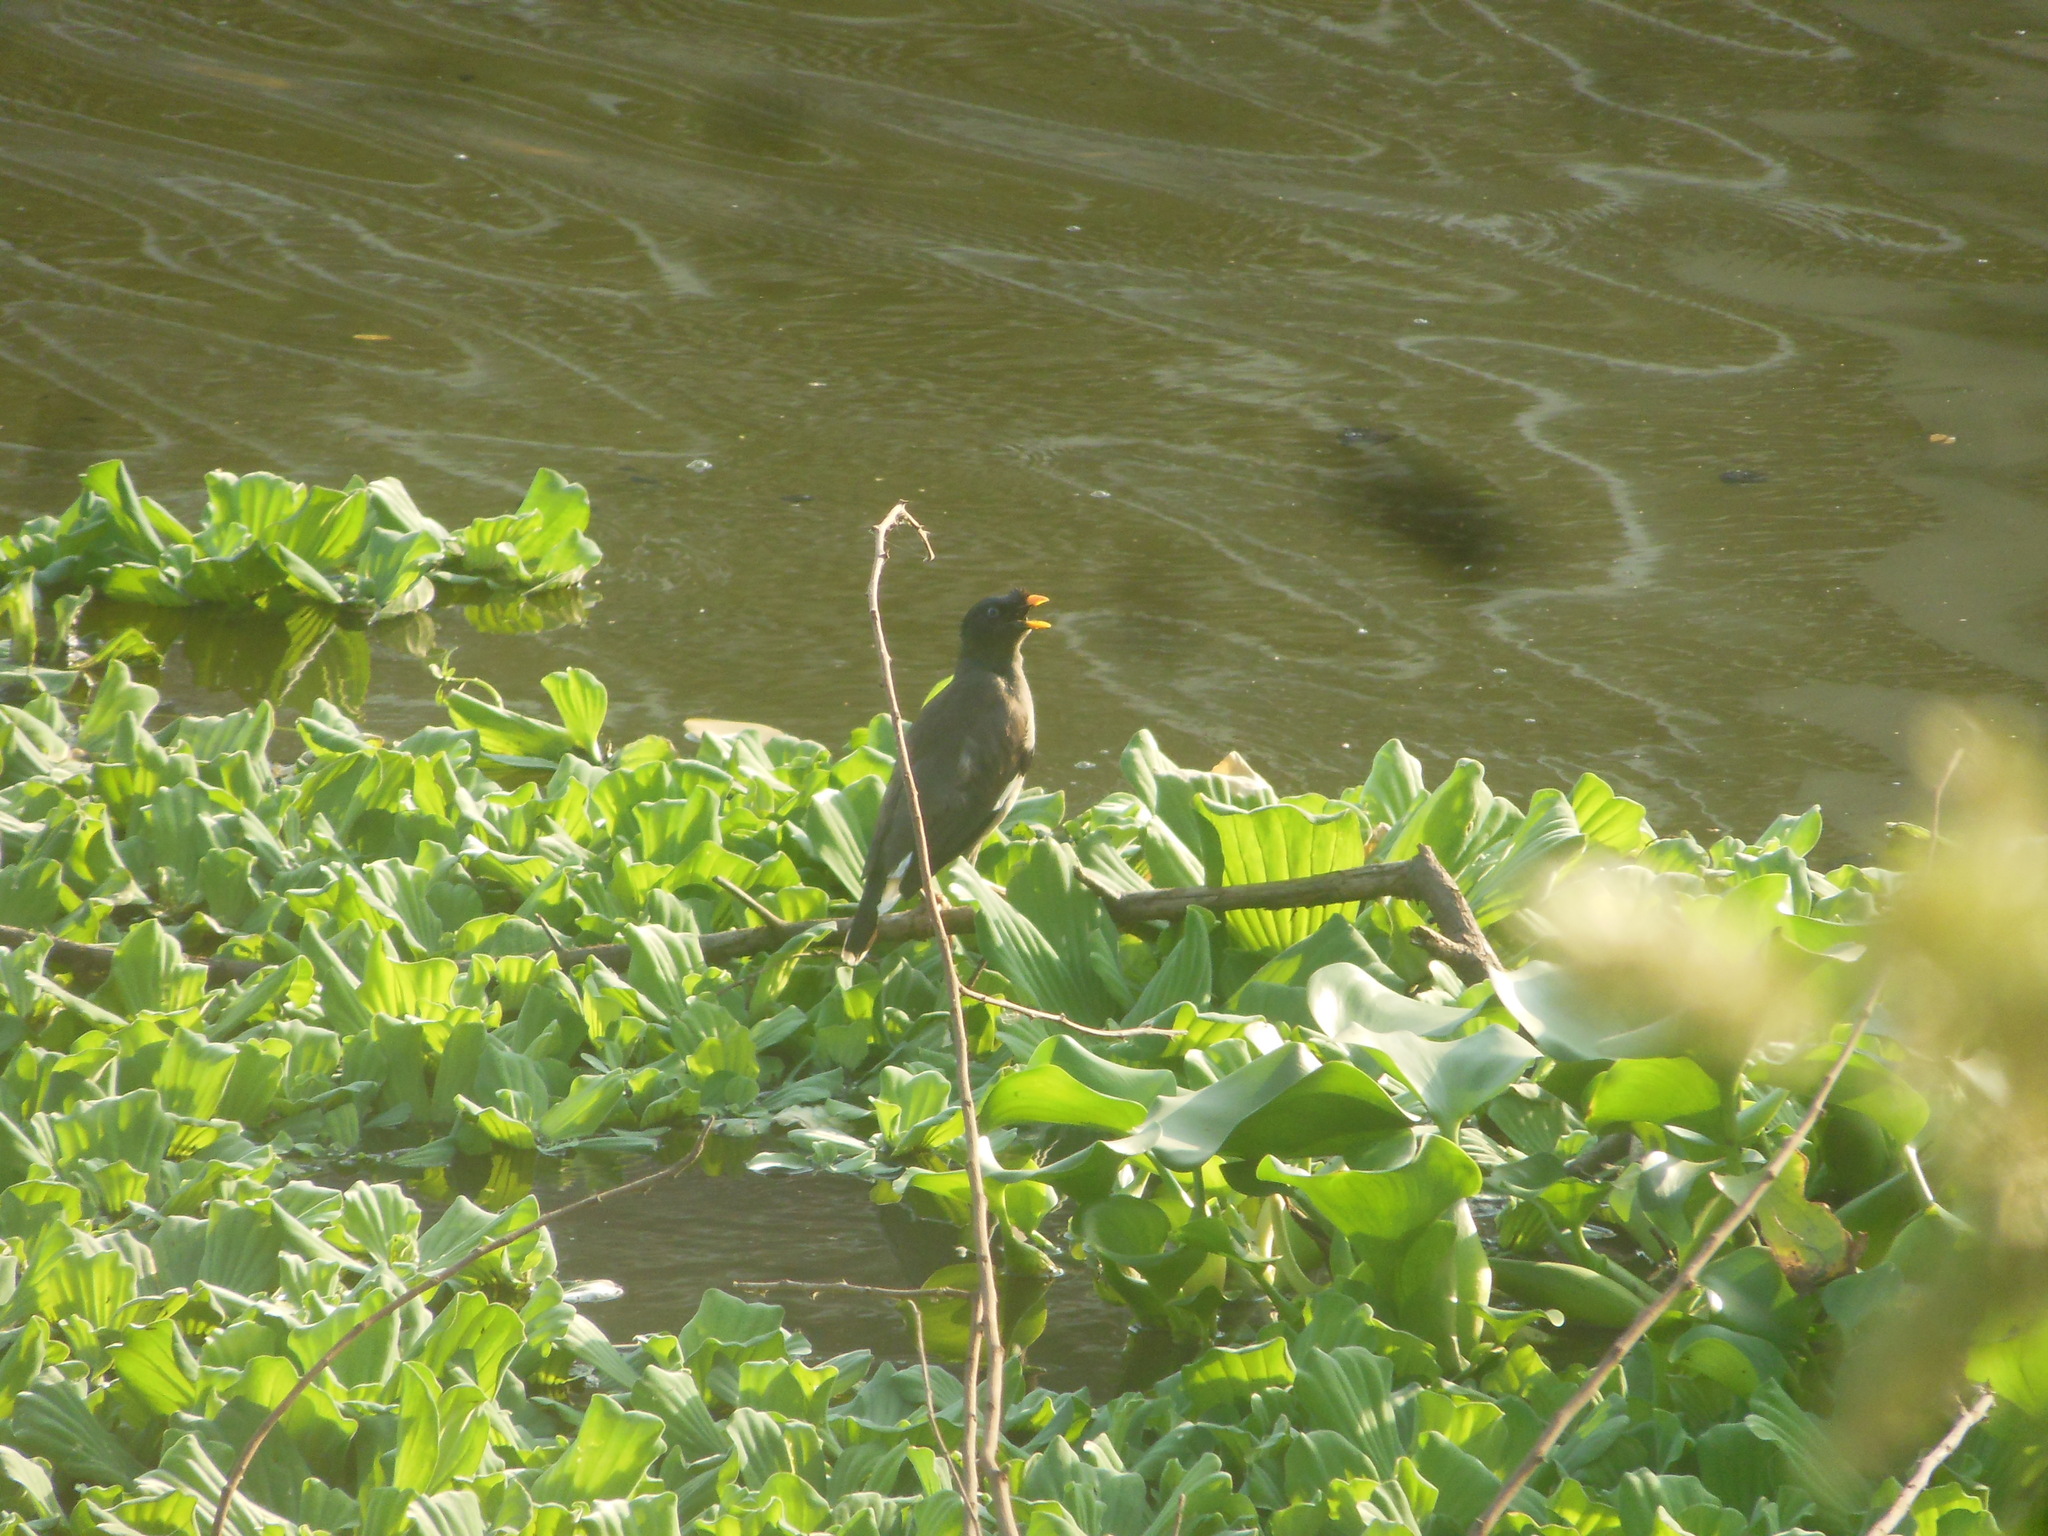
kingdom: Animalia
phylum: Chordata
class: Aves
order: Passeriformes
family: Sturnidae
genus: Acridotheres
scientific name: Acridotheres fuscus
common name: Jungle myna
